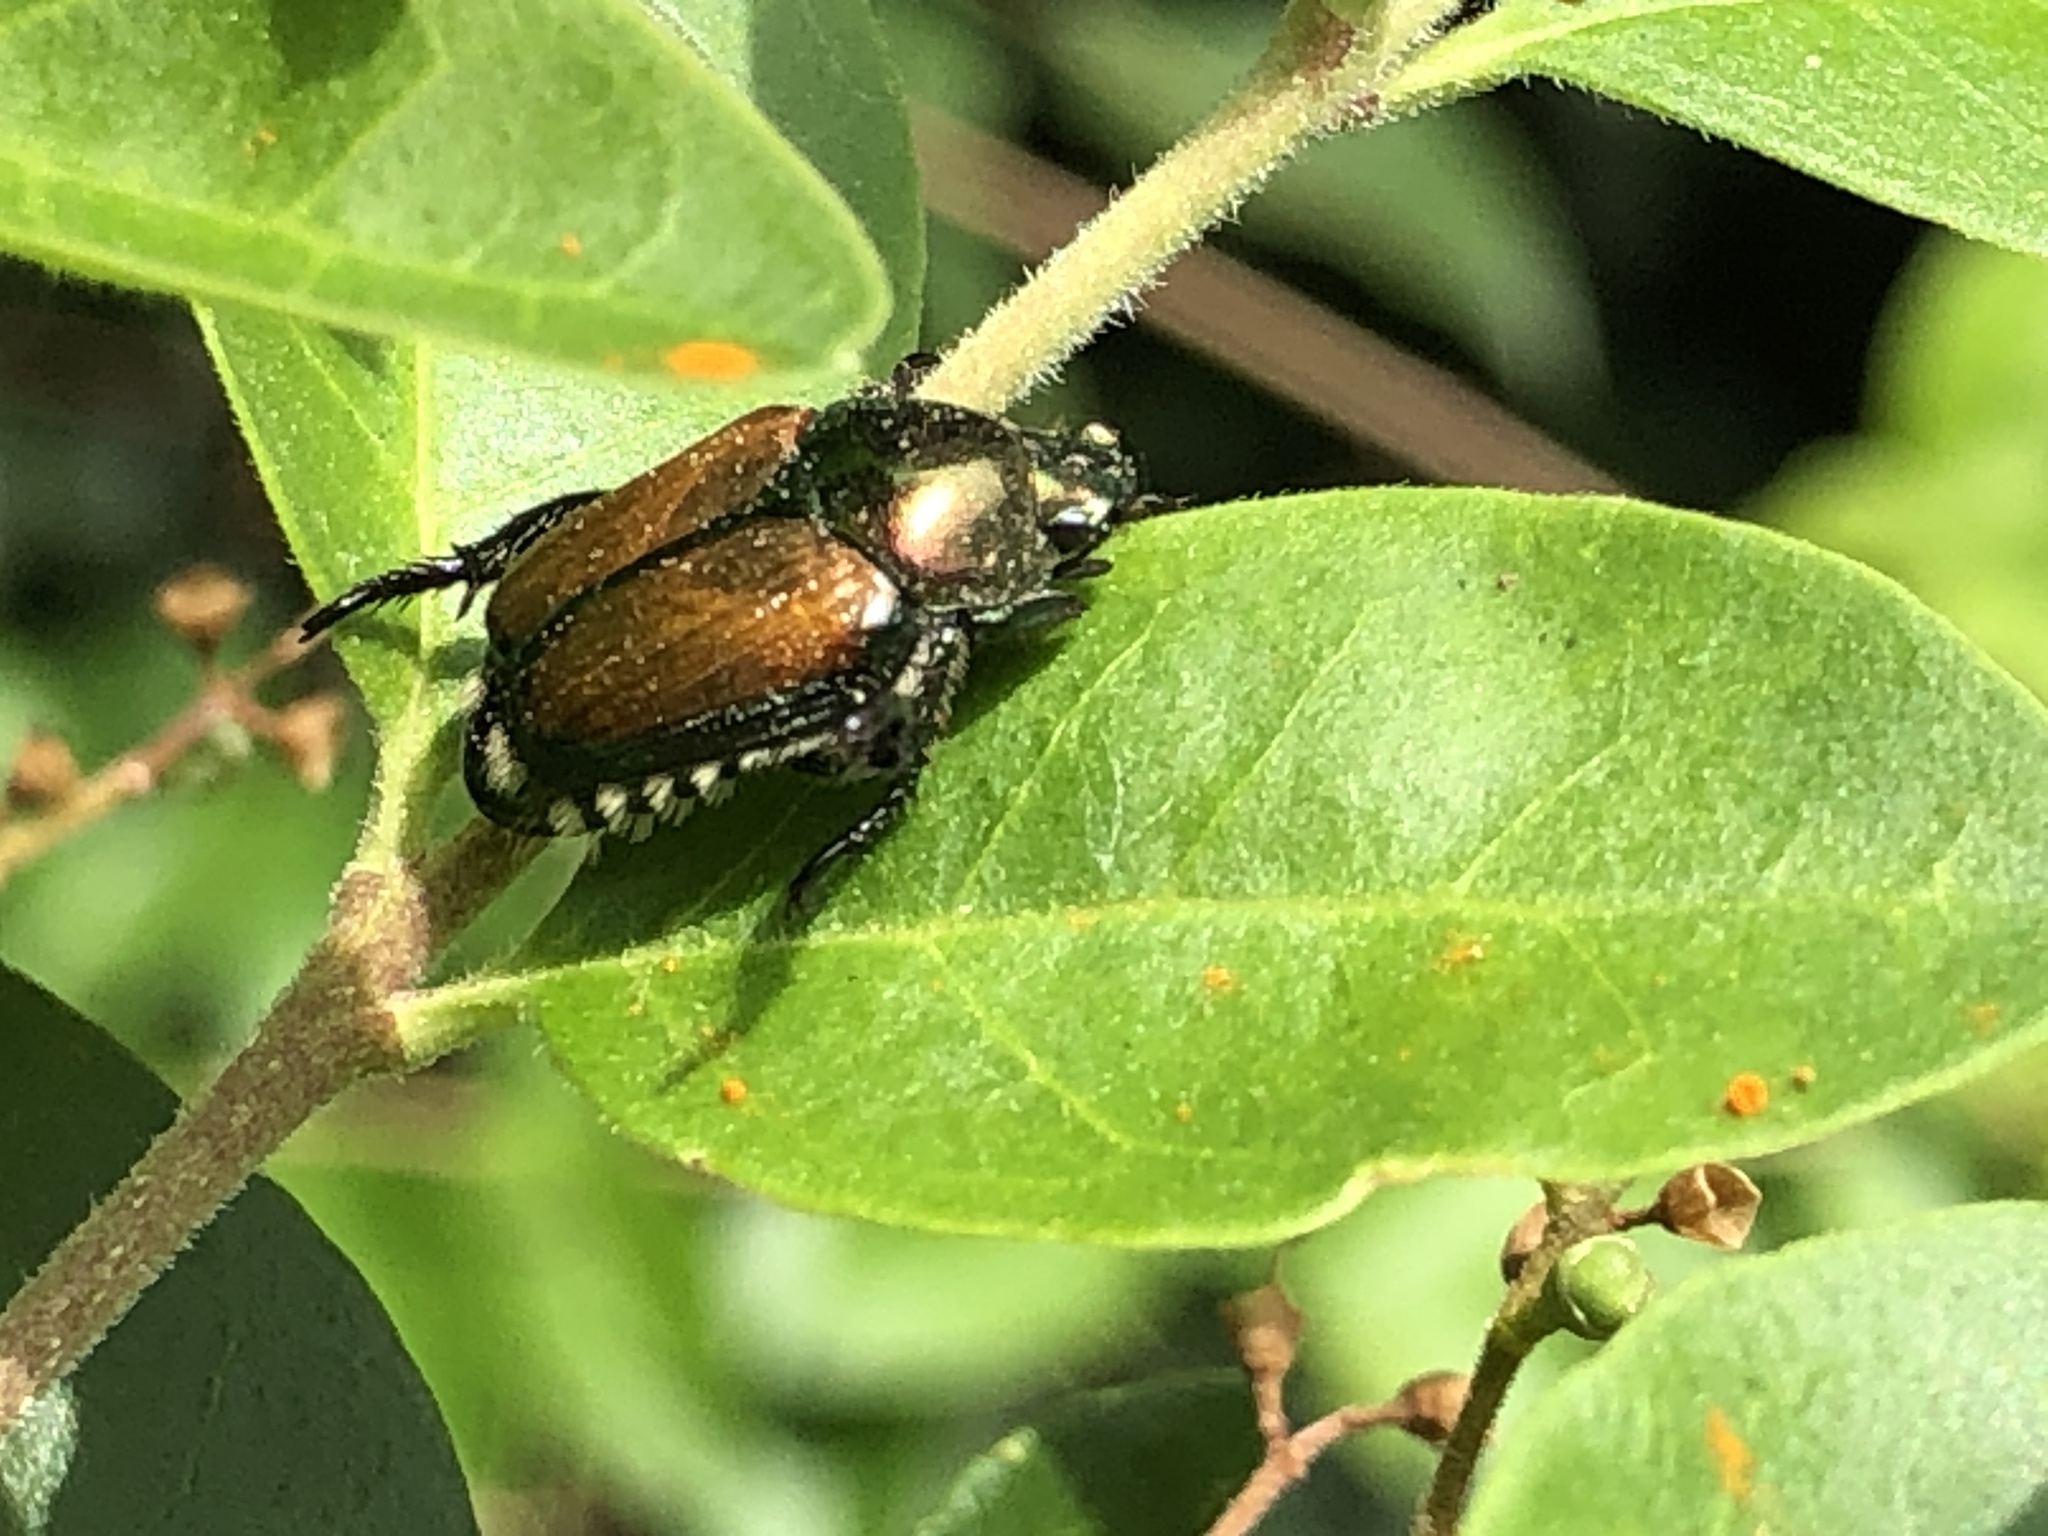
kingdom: Animalia
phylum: Arthropoda
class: Insecta
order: Coleoptera
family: Scarabaeidae
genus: Popillia
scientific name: Popillia japonica
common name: Japanese beetle
